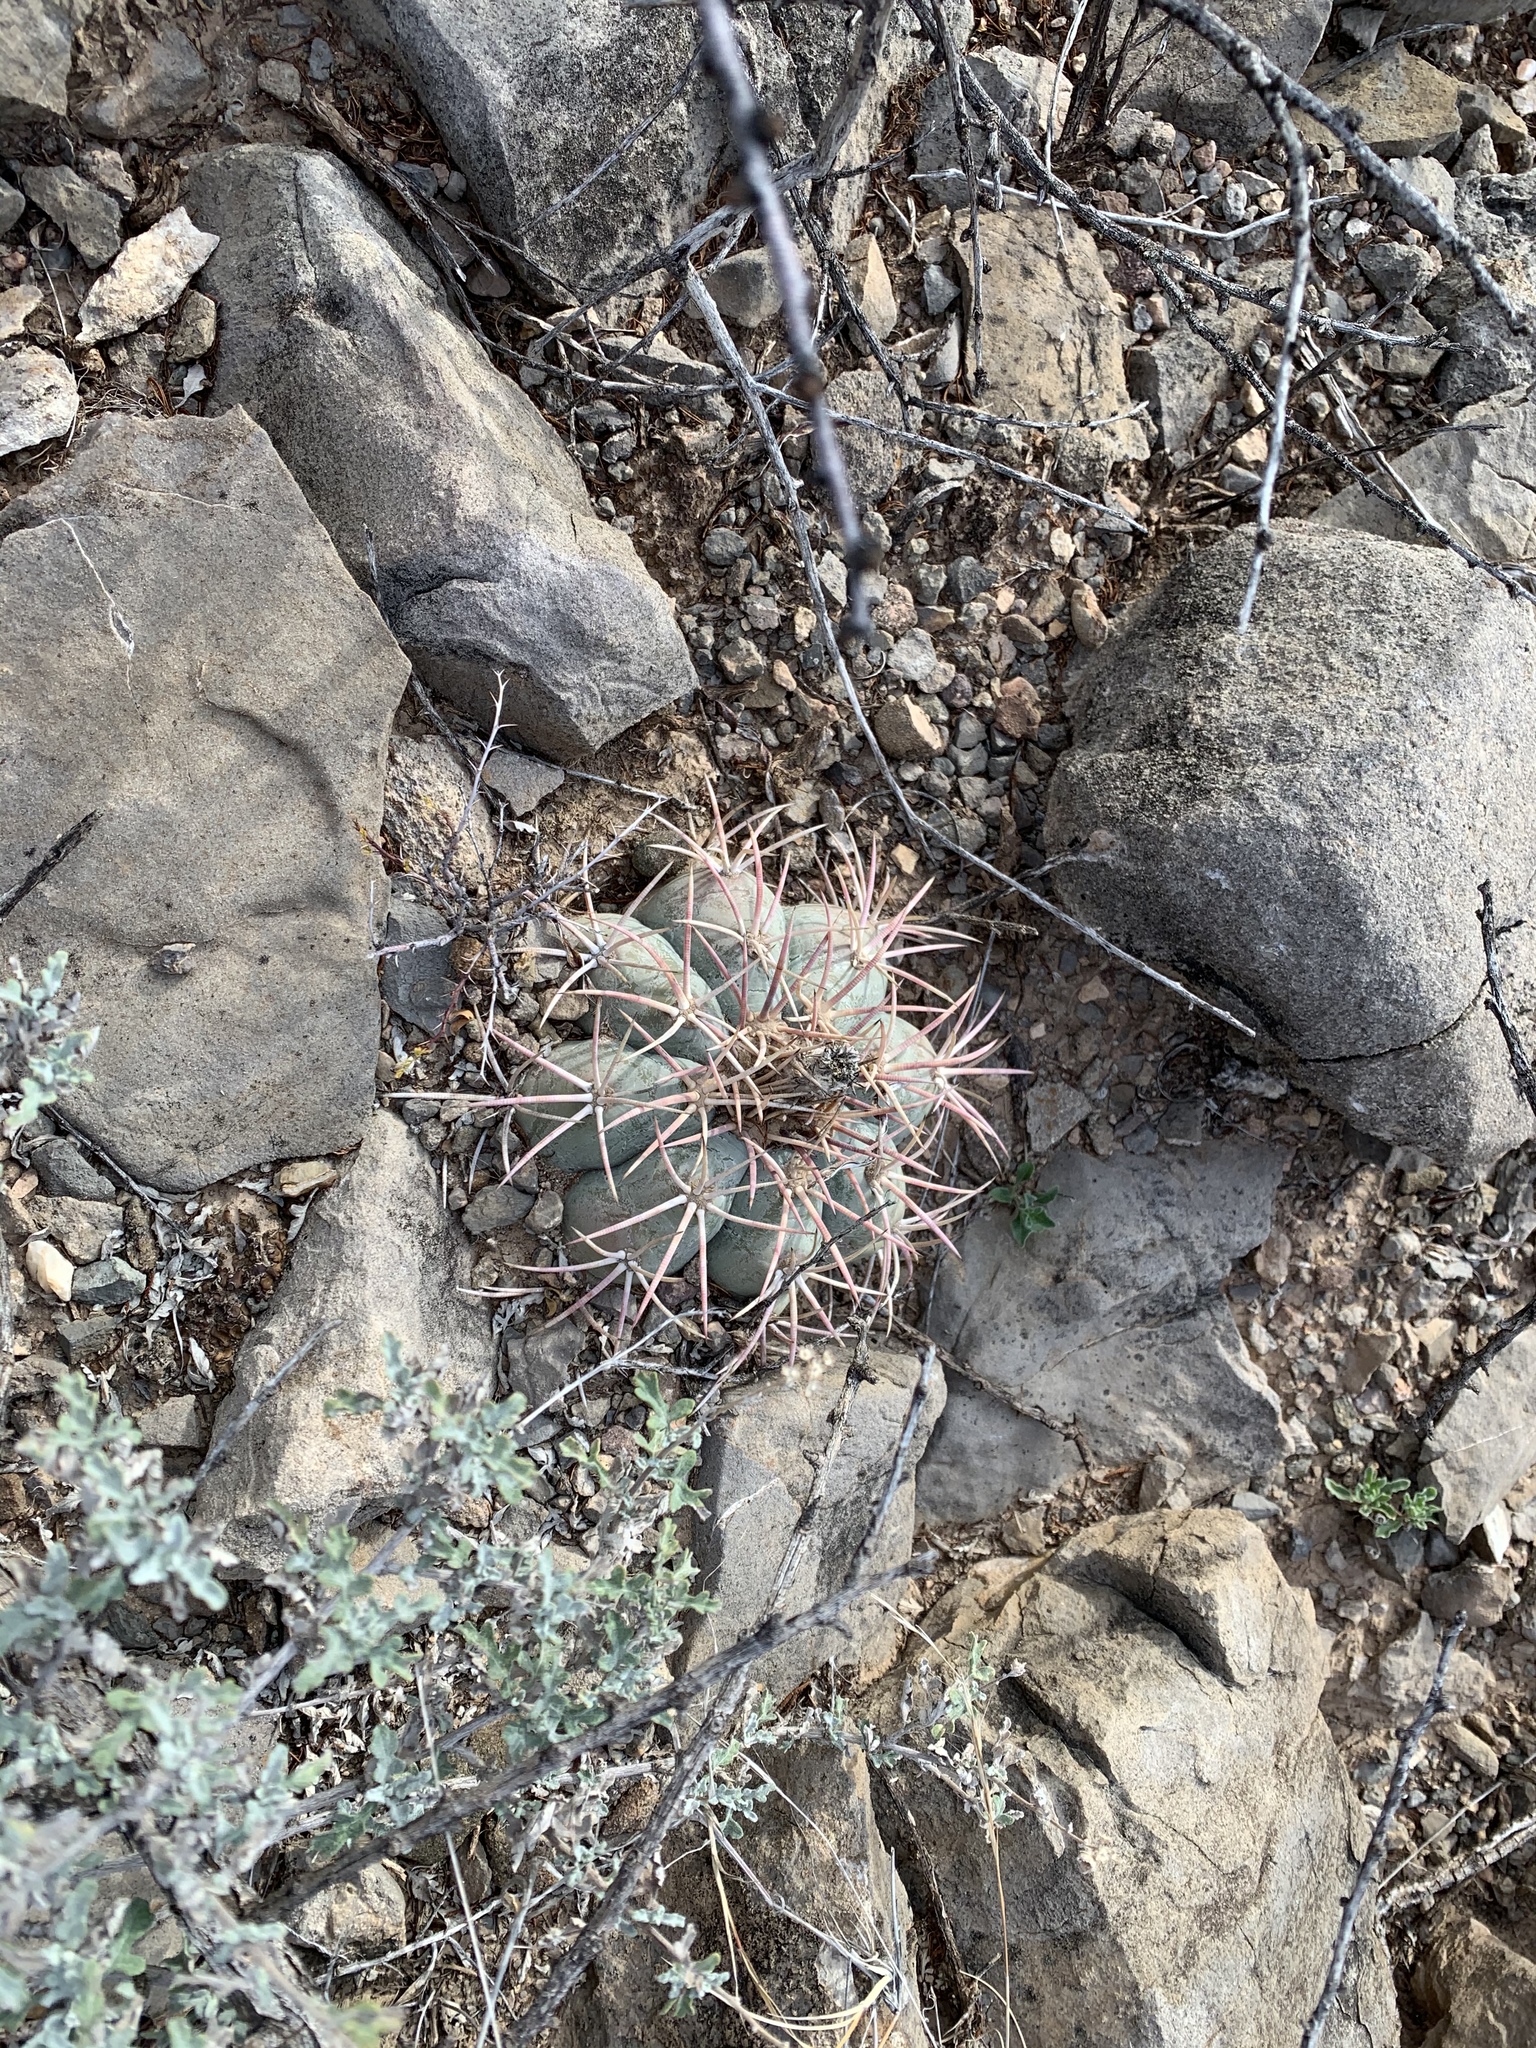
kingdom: Plantae
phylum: Tracheophyta
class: Magnoliopsida
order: Caryophyllales
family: Cactaceae
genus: Echinocactus
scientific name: Echinocactus horizonthalonius
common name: Devilshead
